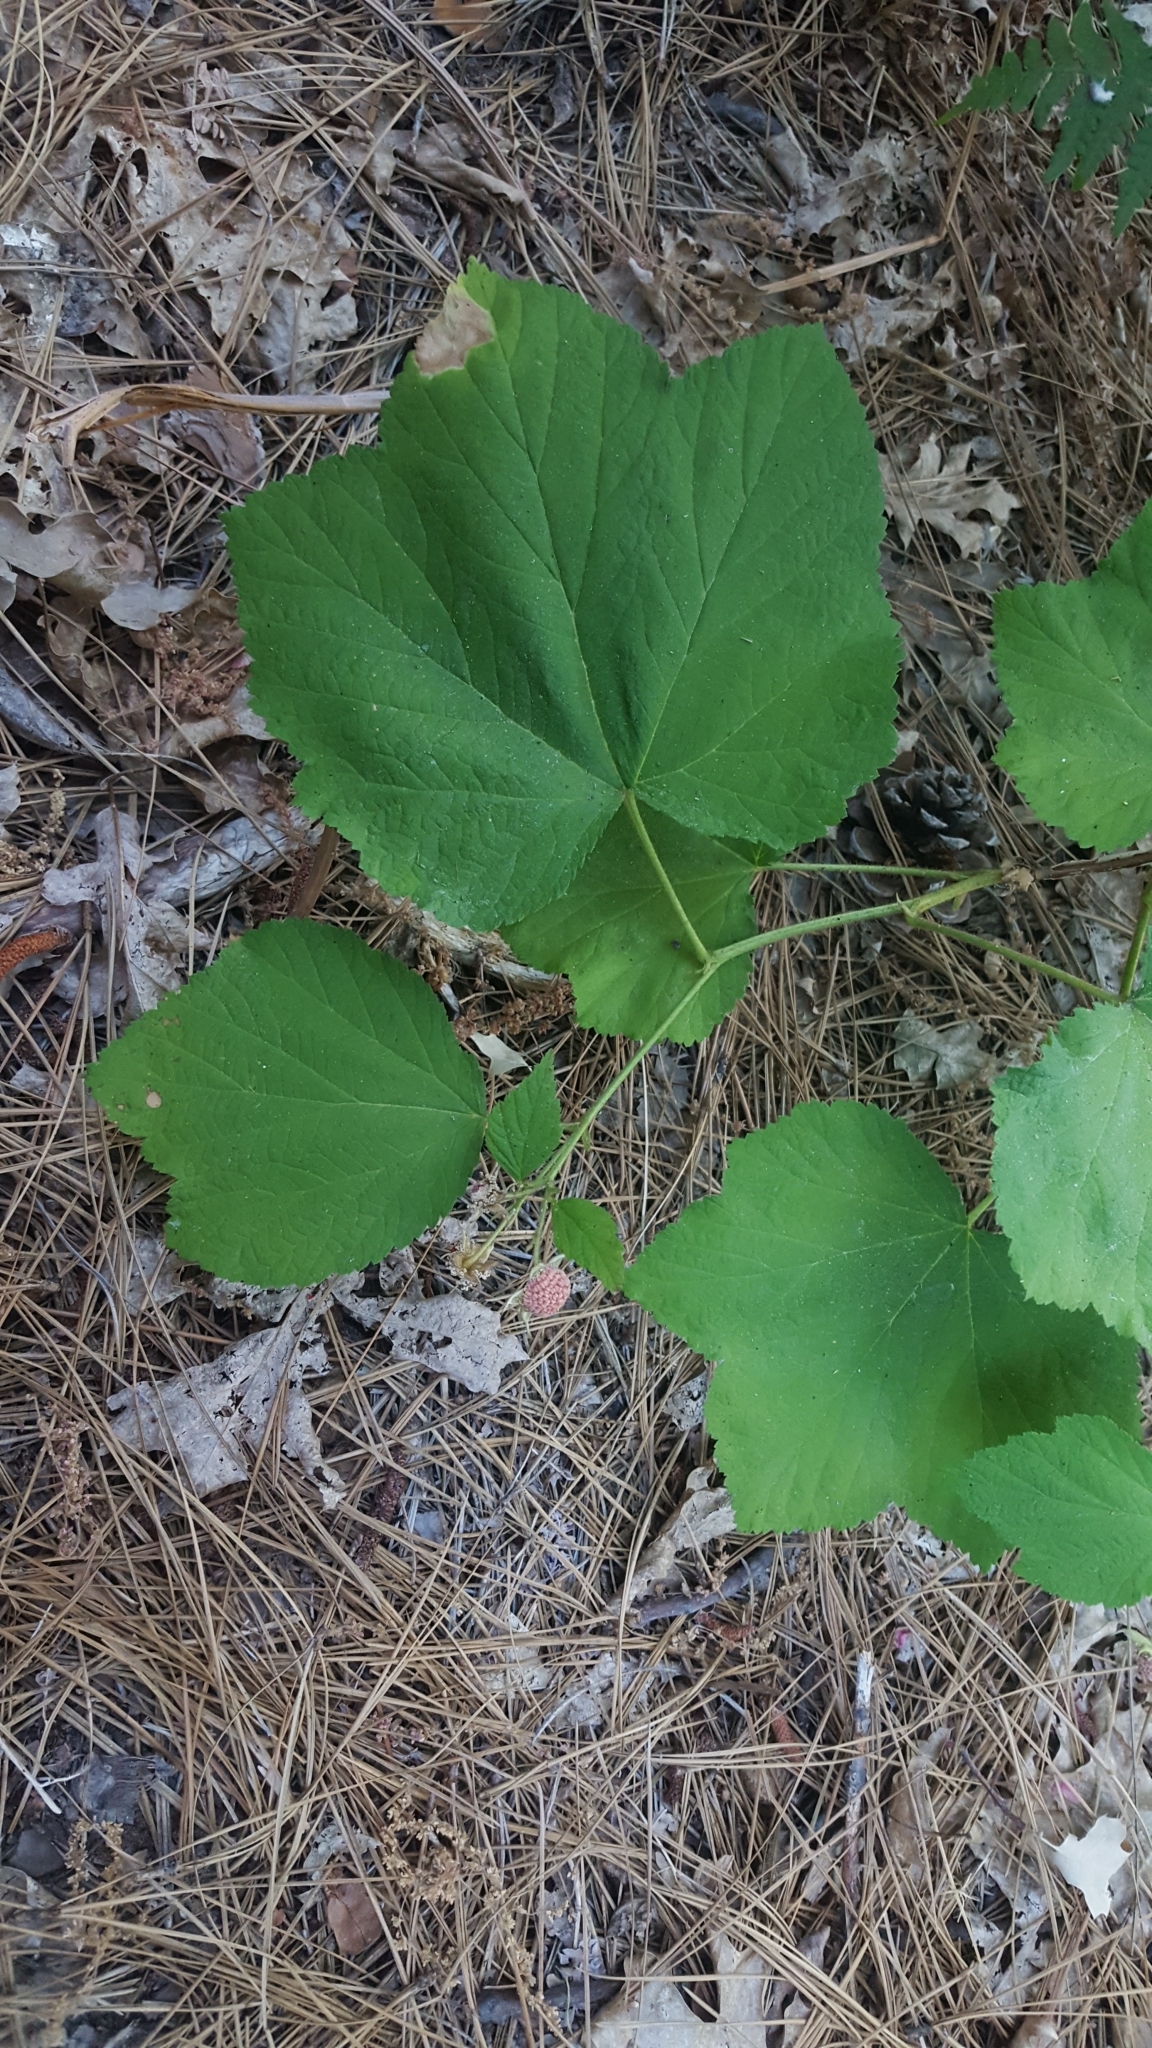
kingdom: Plantae
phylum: Tracheophyta
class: Magnoliopsida
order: Rosales
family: Rosaceae
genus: Rubus
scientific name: Rubus parviflorus
